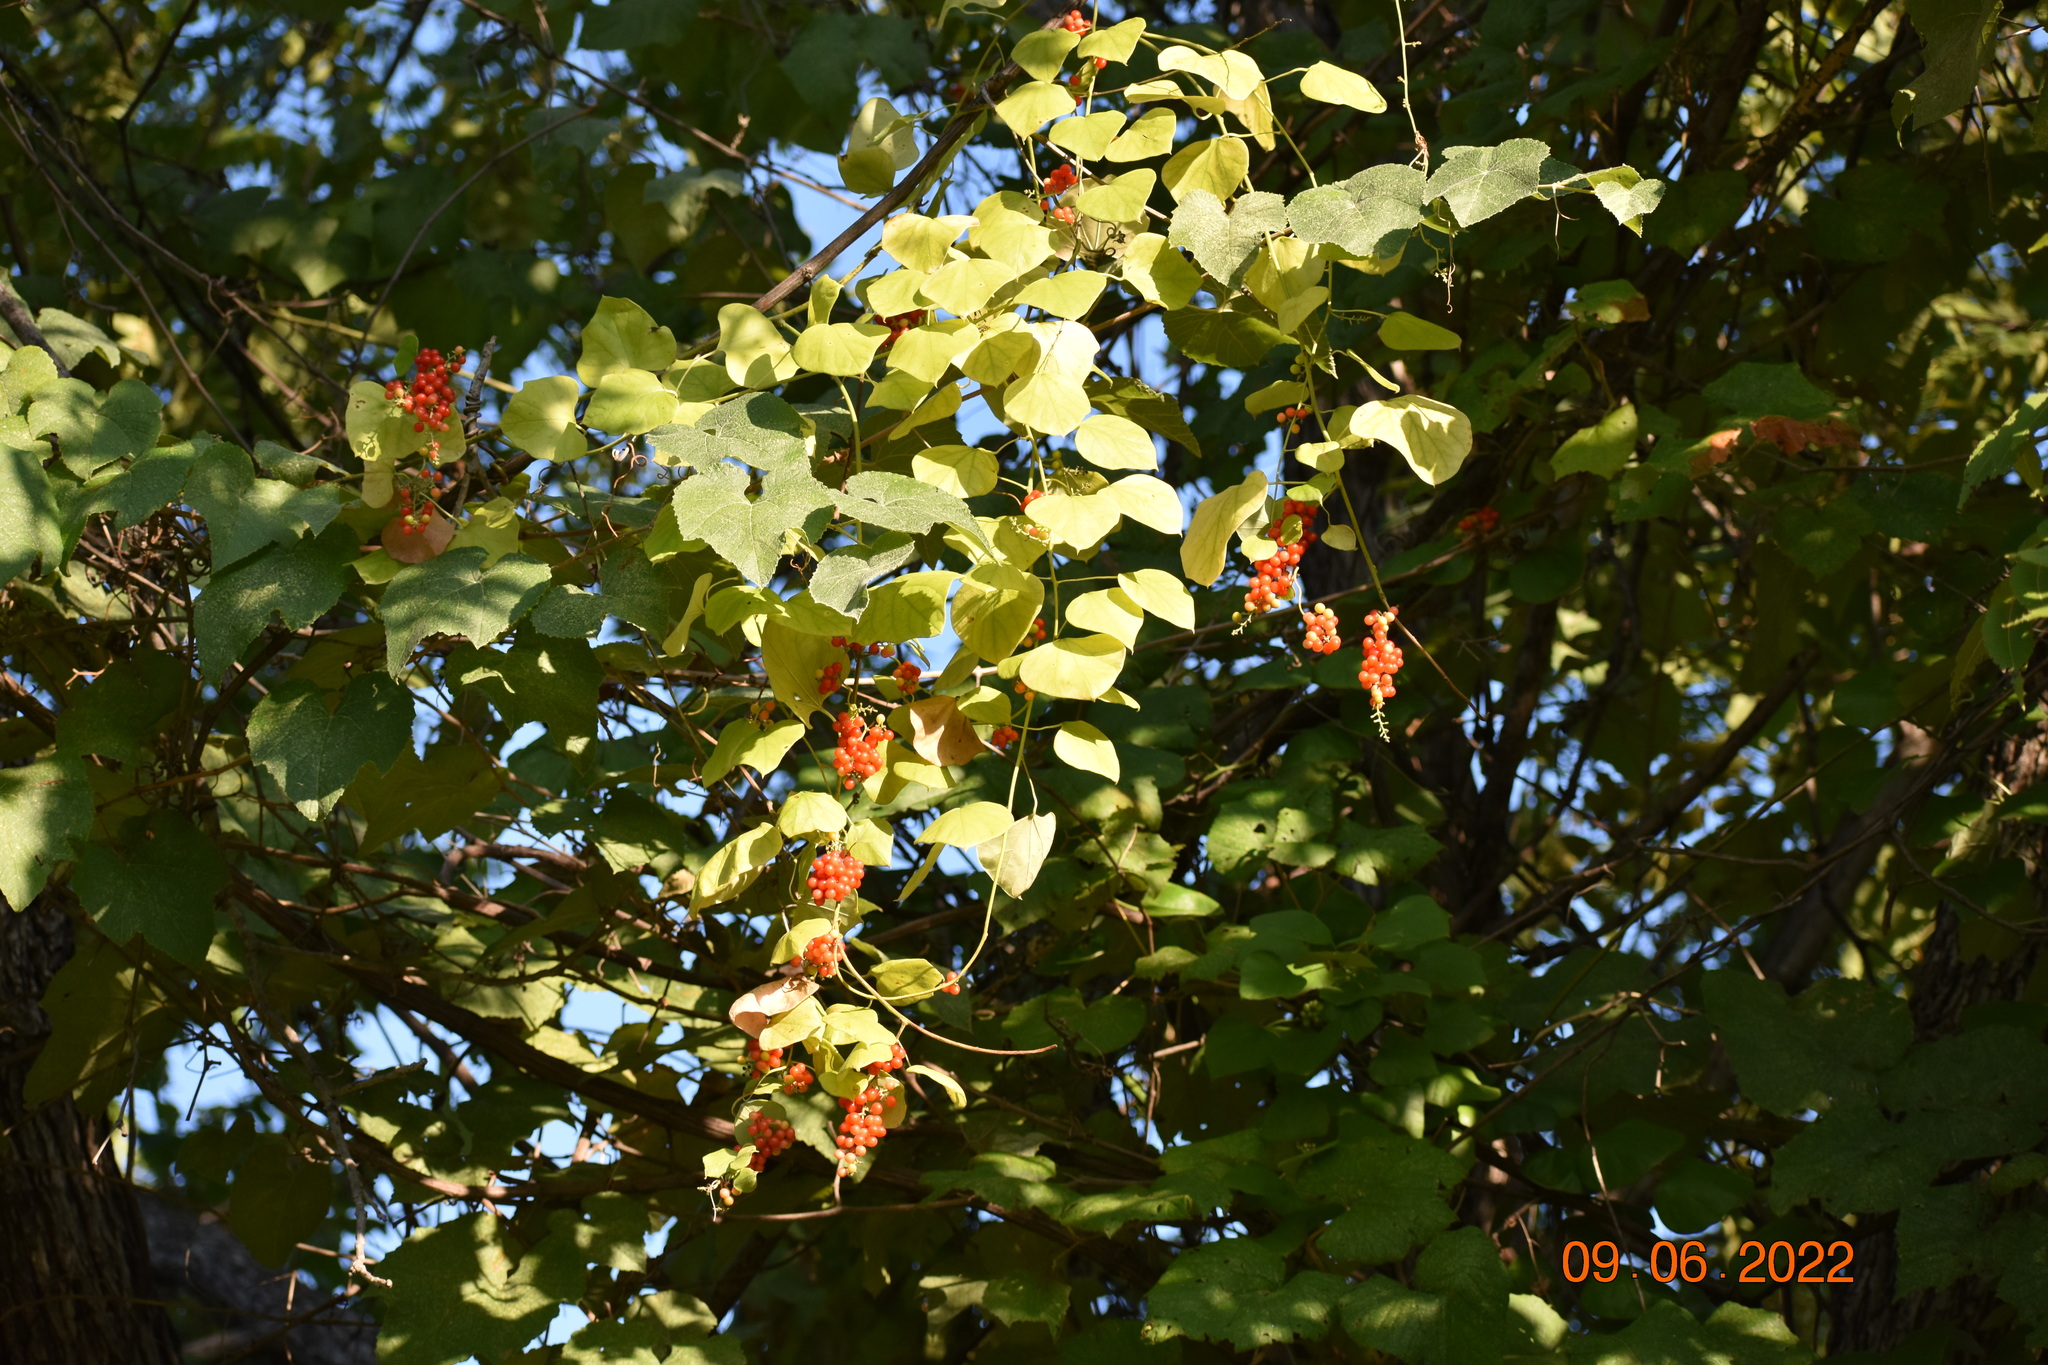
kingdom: Plantae
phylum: Tracheophyta
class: Magnoliopsida
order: Ranunculales
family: Menispermaceae
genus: Cocculus
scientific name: Cocculus carolinus
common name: Carolina moonseed
